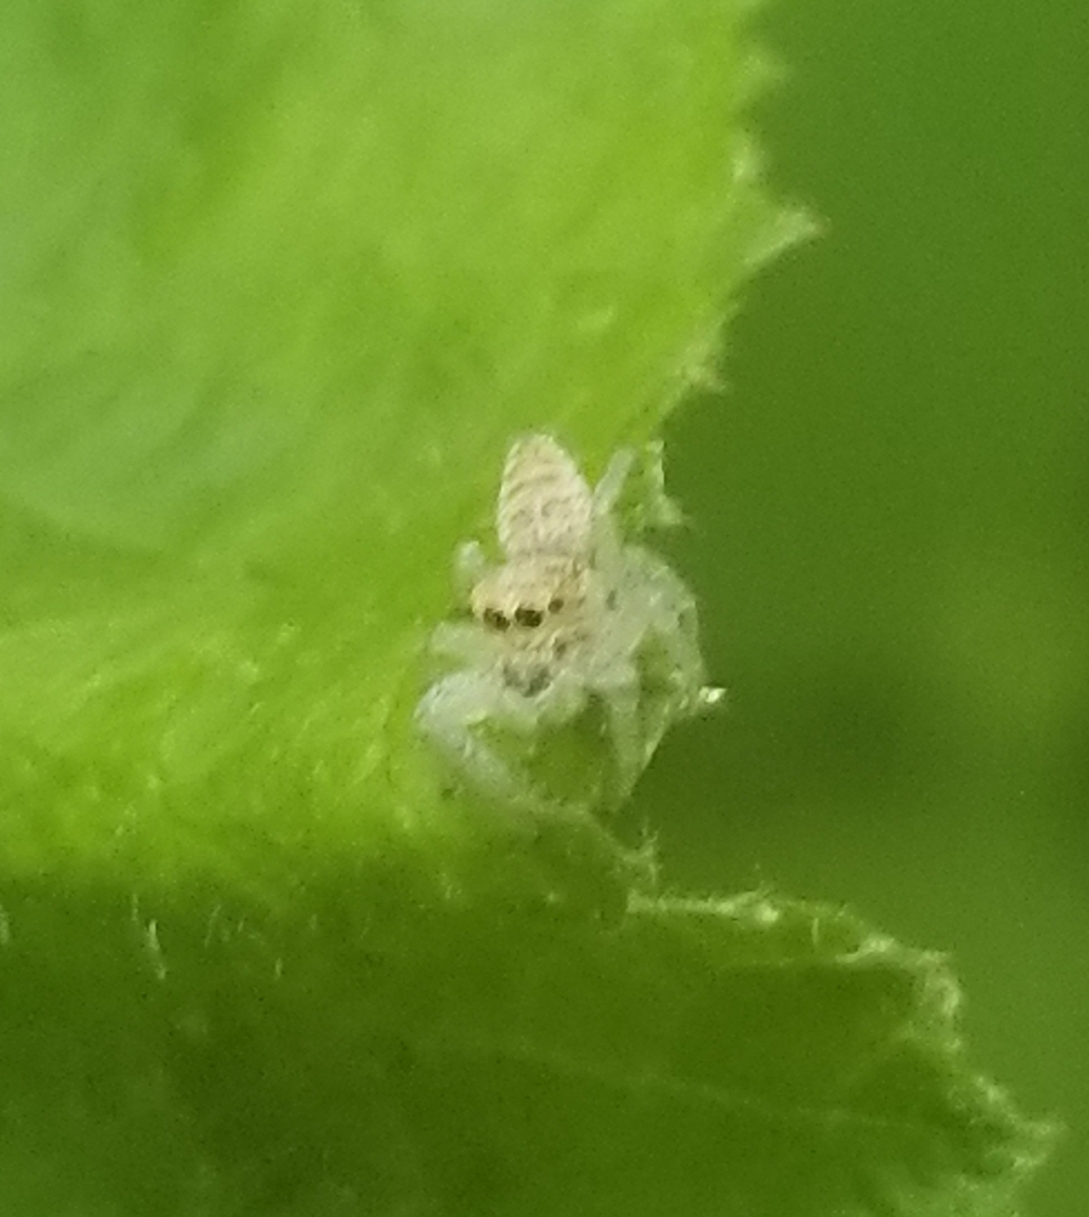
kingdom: Animalia
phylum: Arthropoda
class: Arachnida
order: Araneae
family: Salticidae
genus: Hentzia
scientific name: Hentzia mitrata
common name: White-jawed jumping spider
